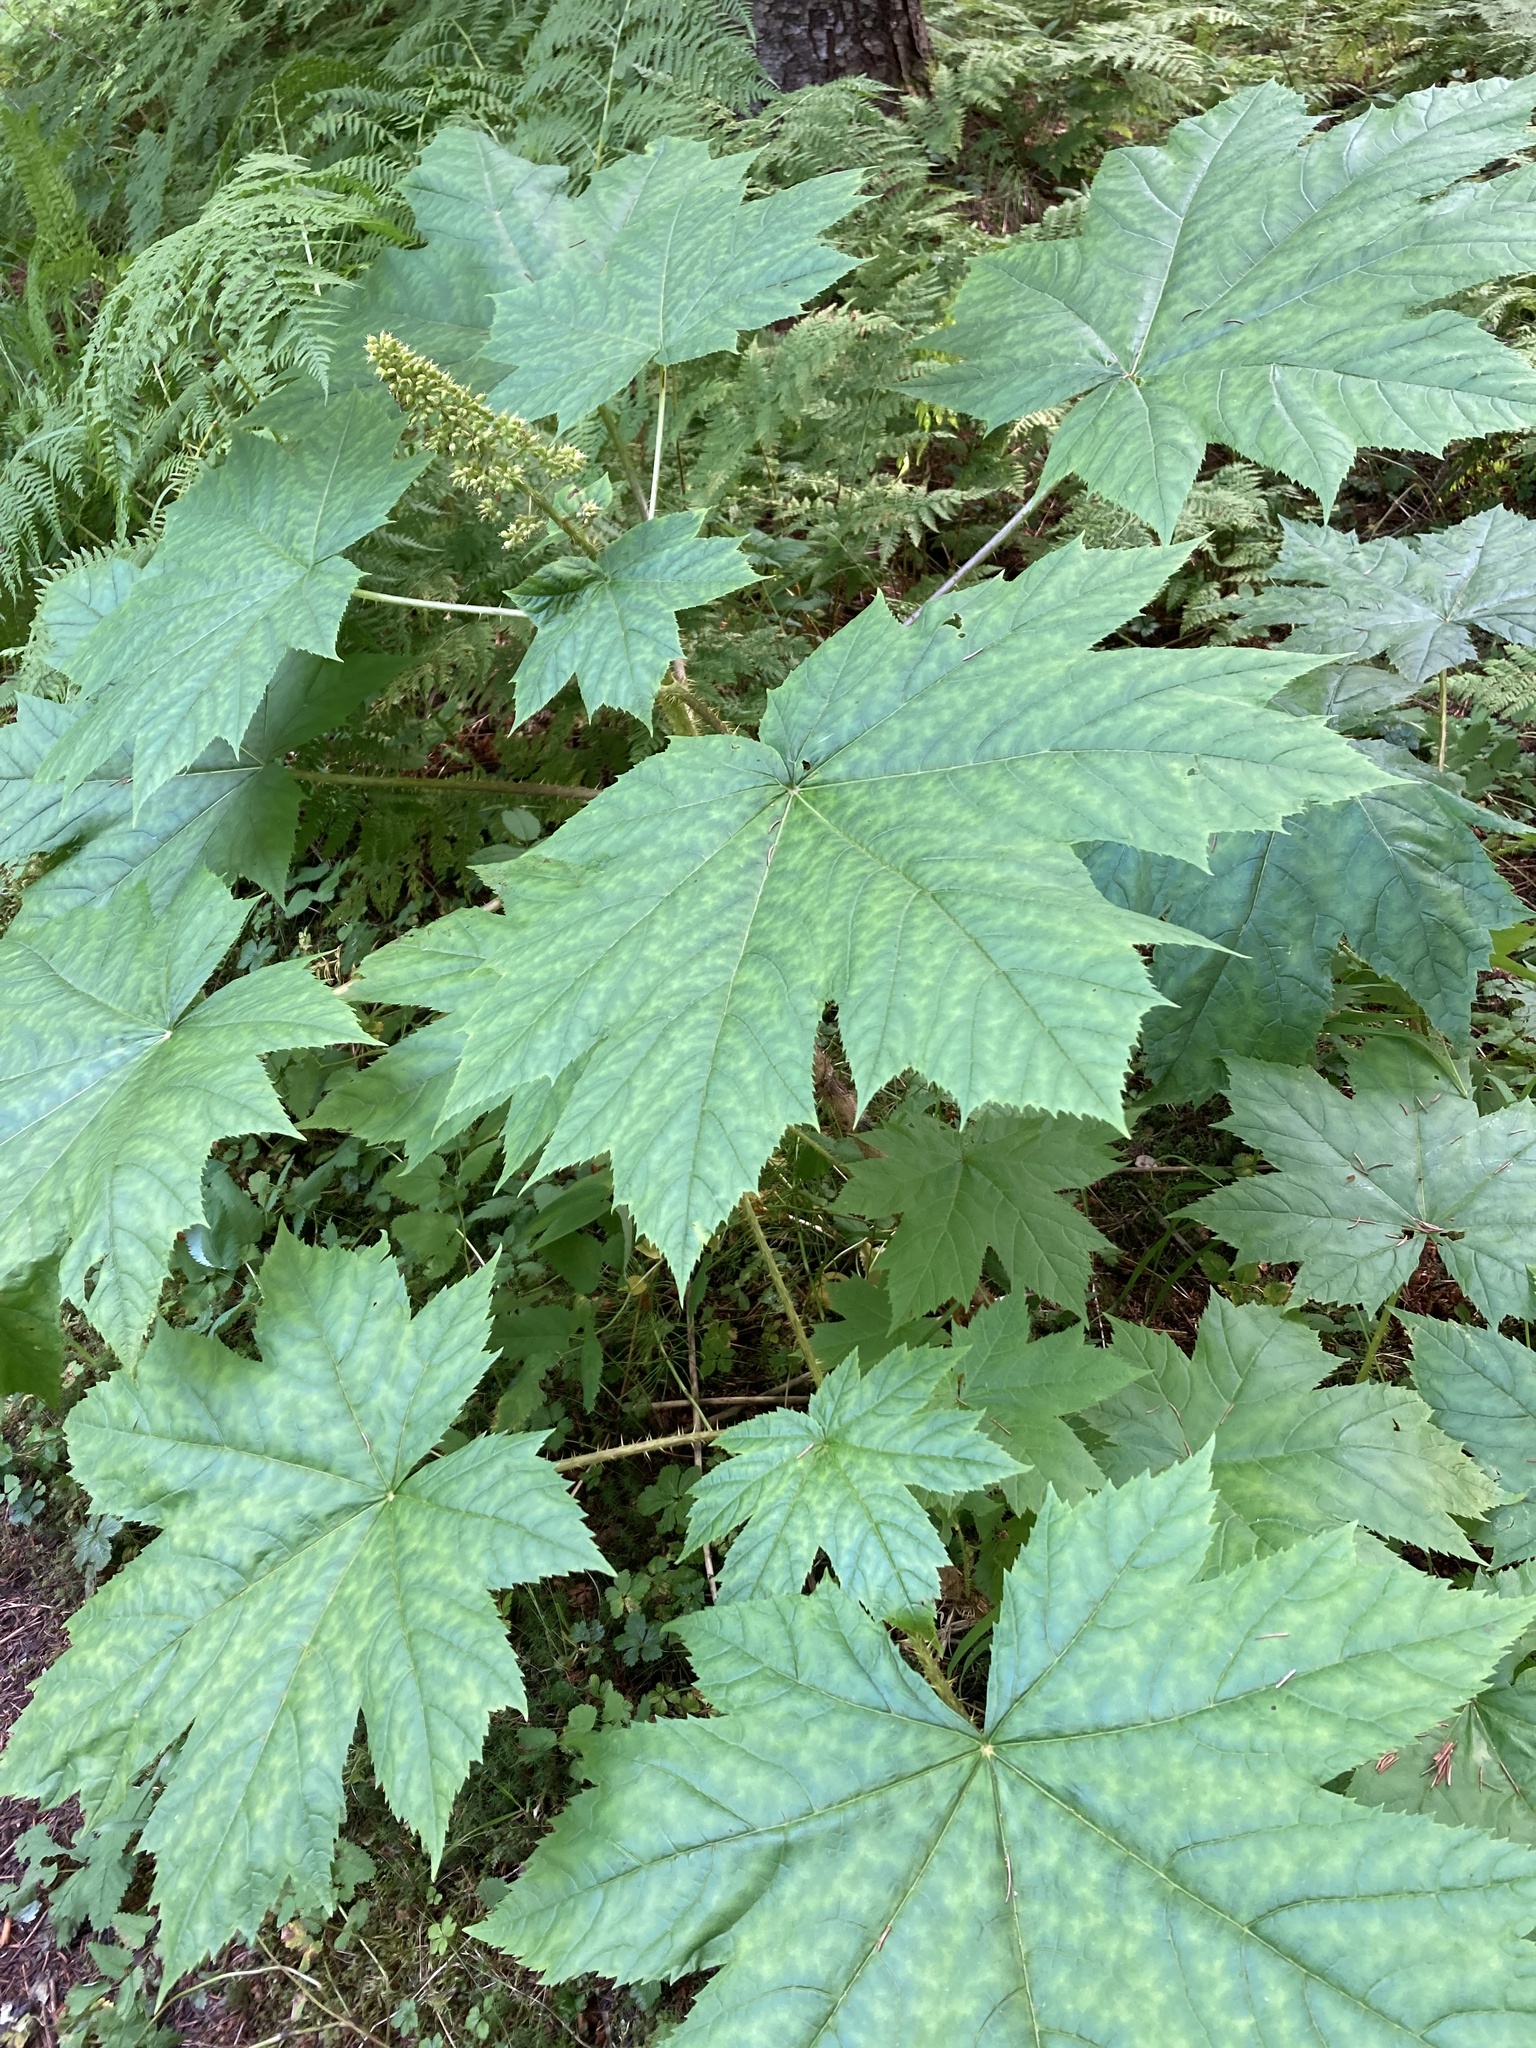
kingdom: Plantae
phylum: Tracheophyta
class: Magnoliopsida
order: Apiales
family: Araliaceae
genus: Oplopanax
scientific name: Oplopanax horridus
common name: Devil's walking-stick
